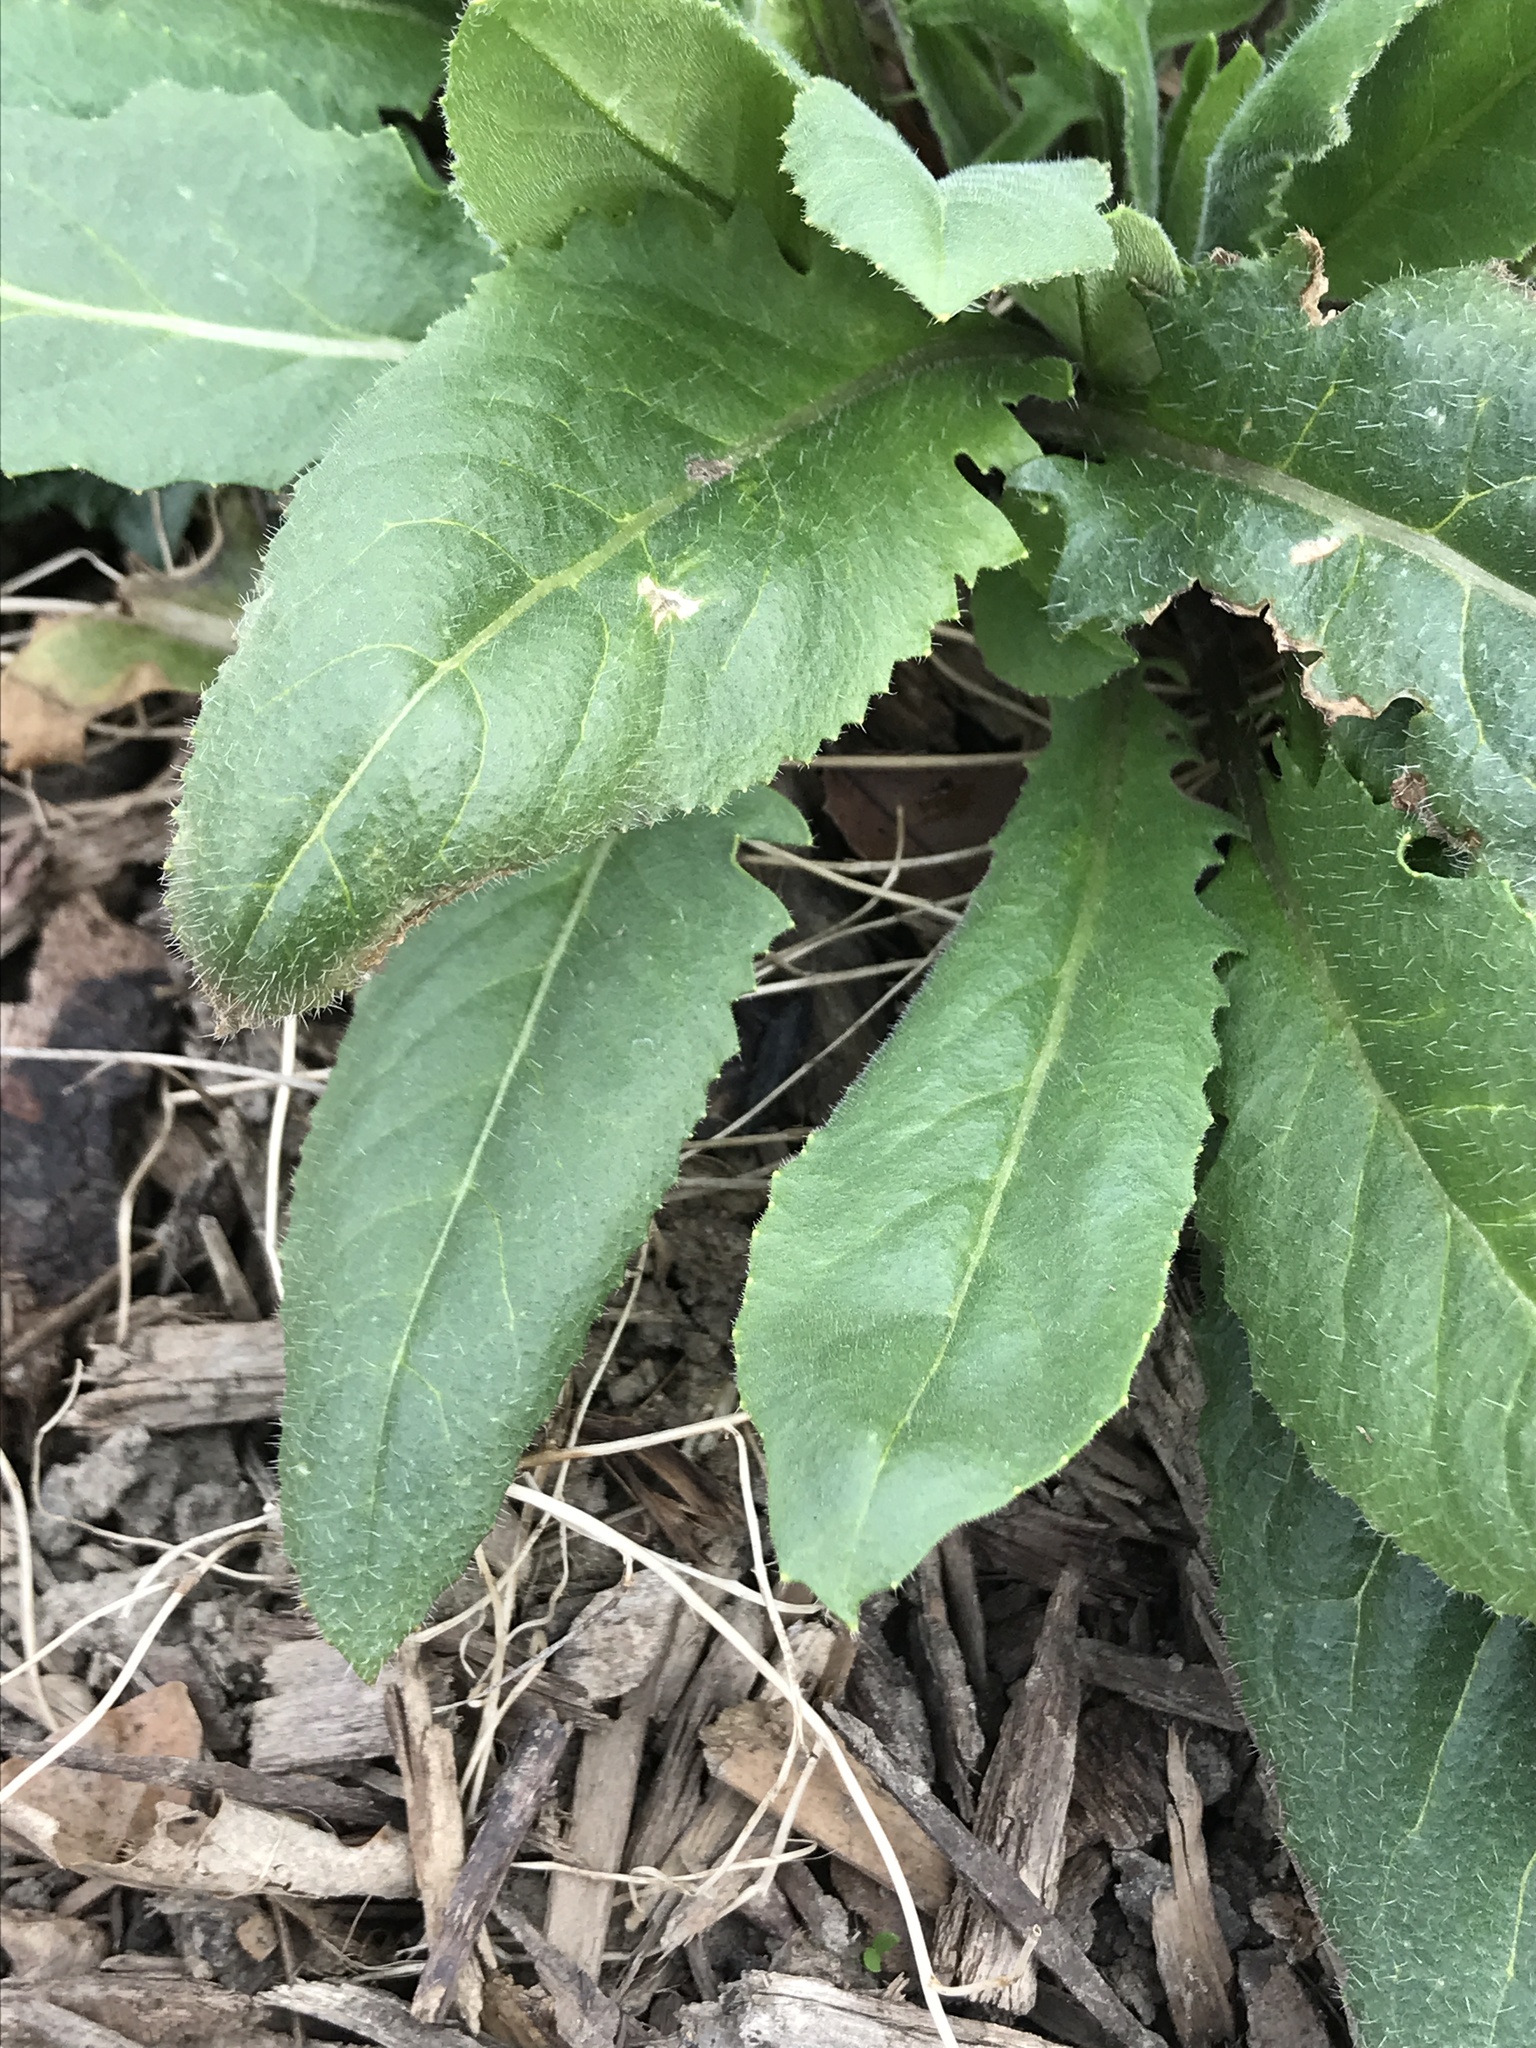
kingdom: Plantae
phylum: Tracheophyta
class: Magnoliopsida
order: Brassicales
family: Brassicaceae
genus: Hesperis
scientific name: Hesperis matronalis
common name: Dame's-violet
